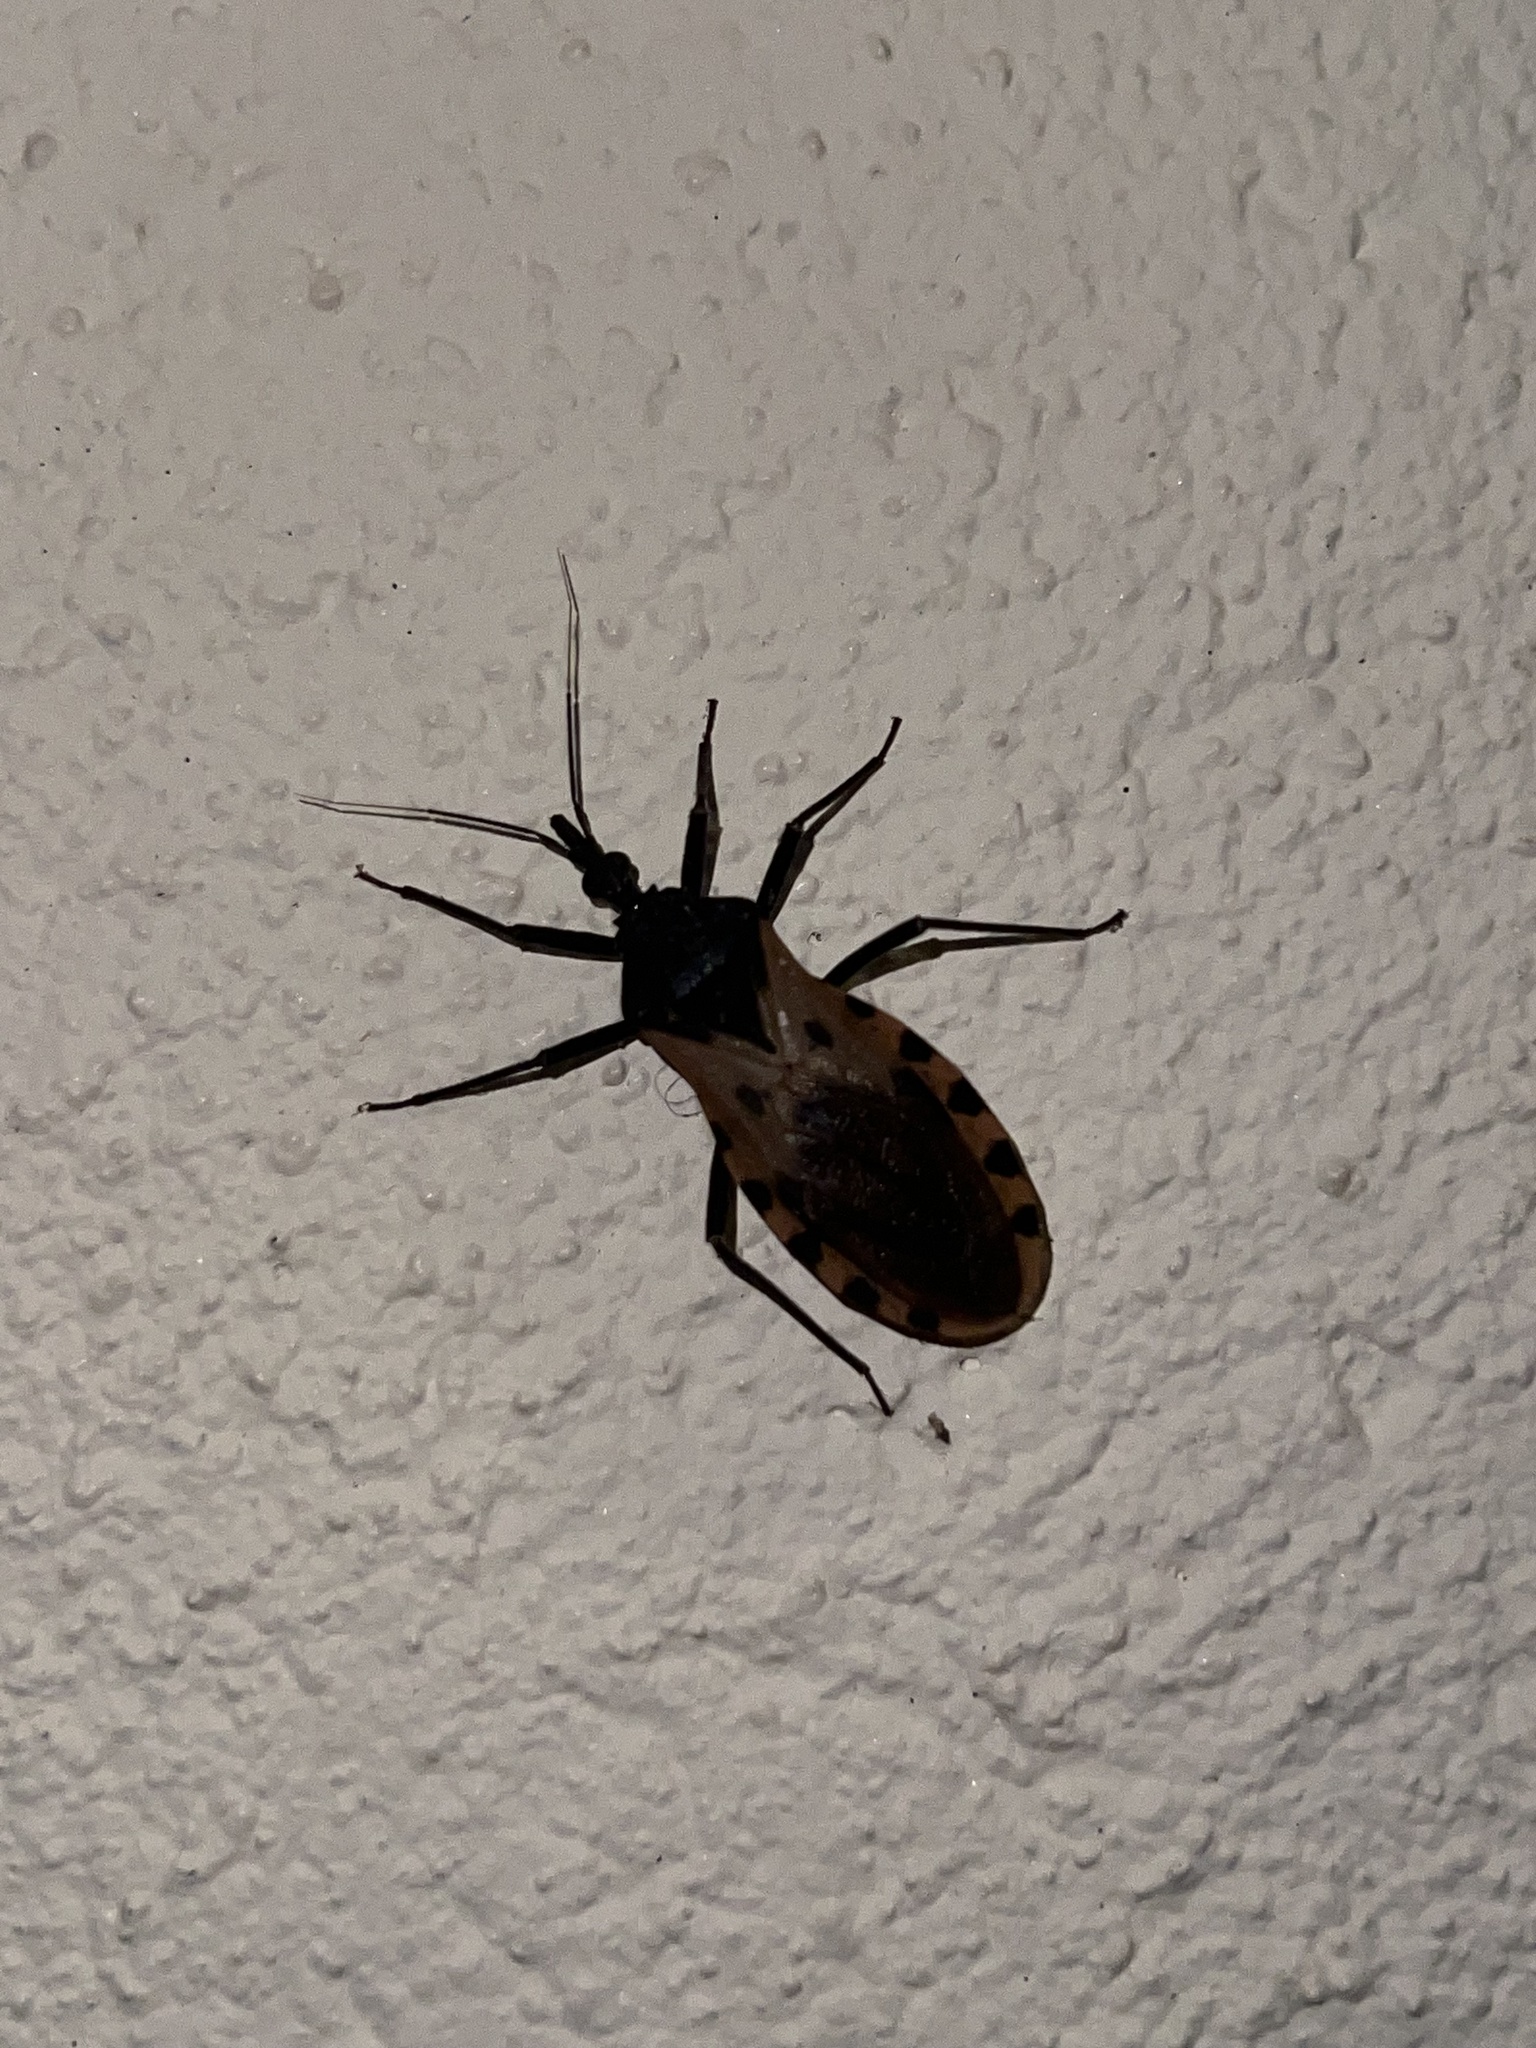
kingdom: Animalia
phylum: Arthropoda
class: Insecta
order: Hemiptera
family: Reduviidae
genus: Meccus
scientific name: Meccus dimidiatus
